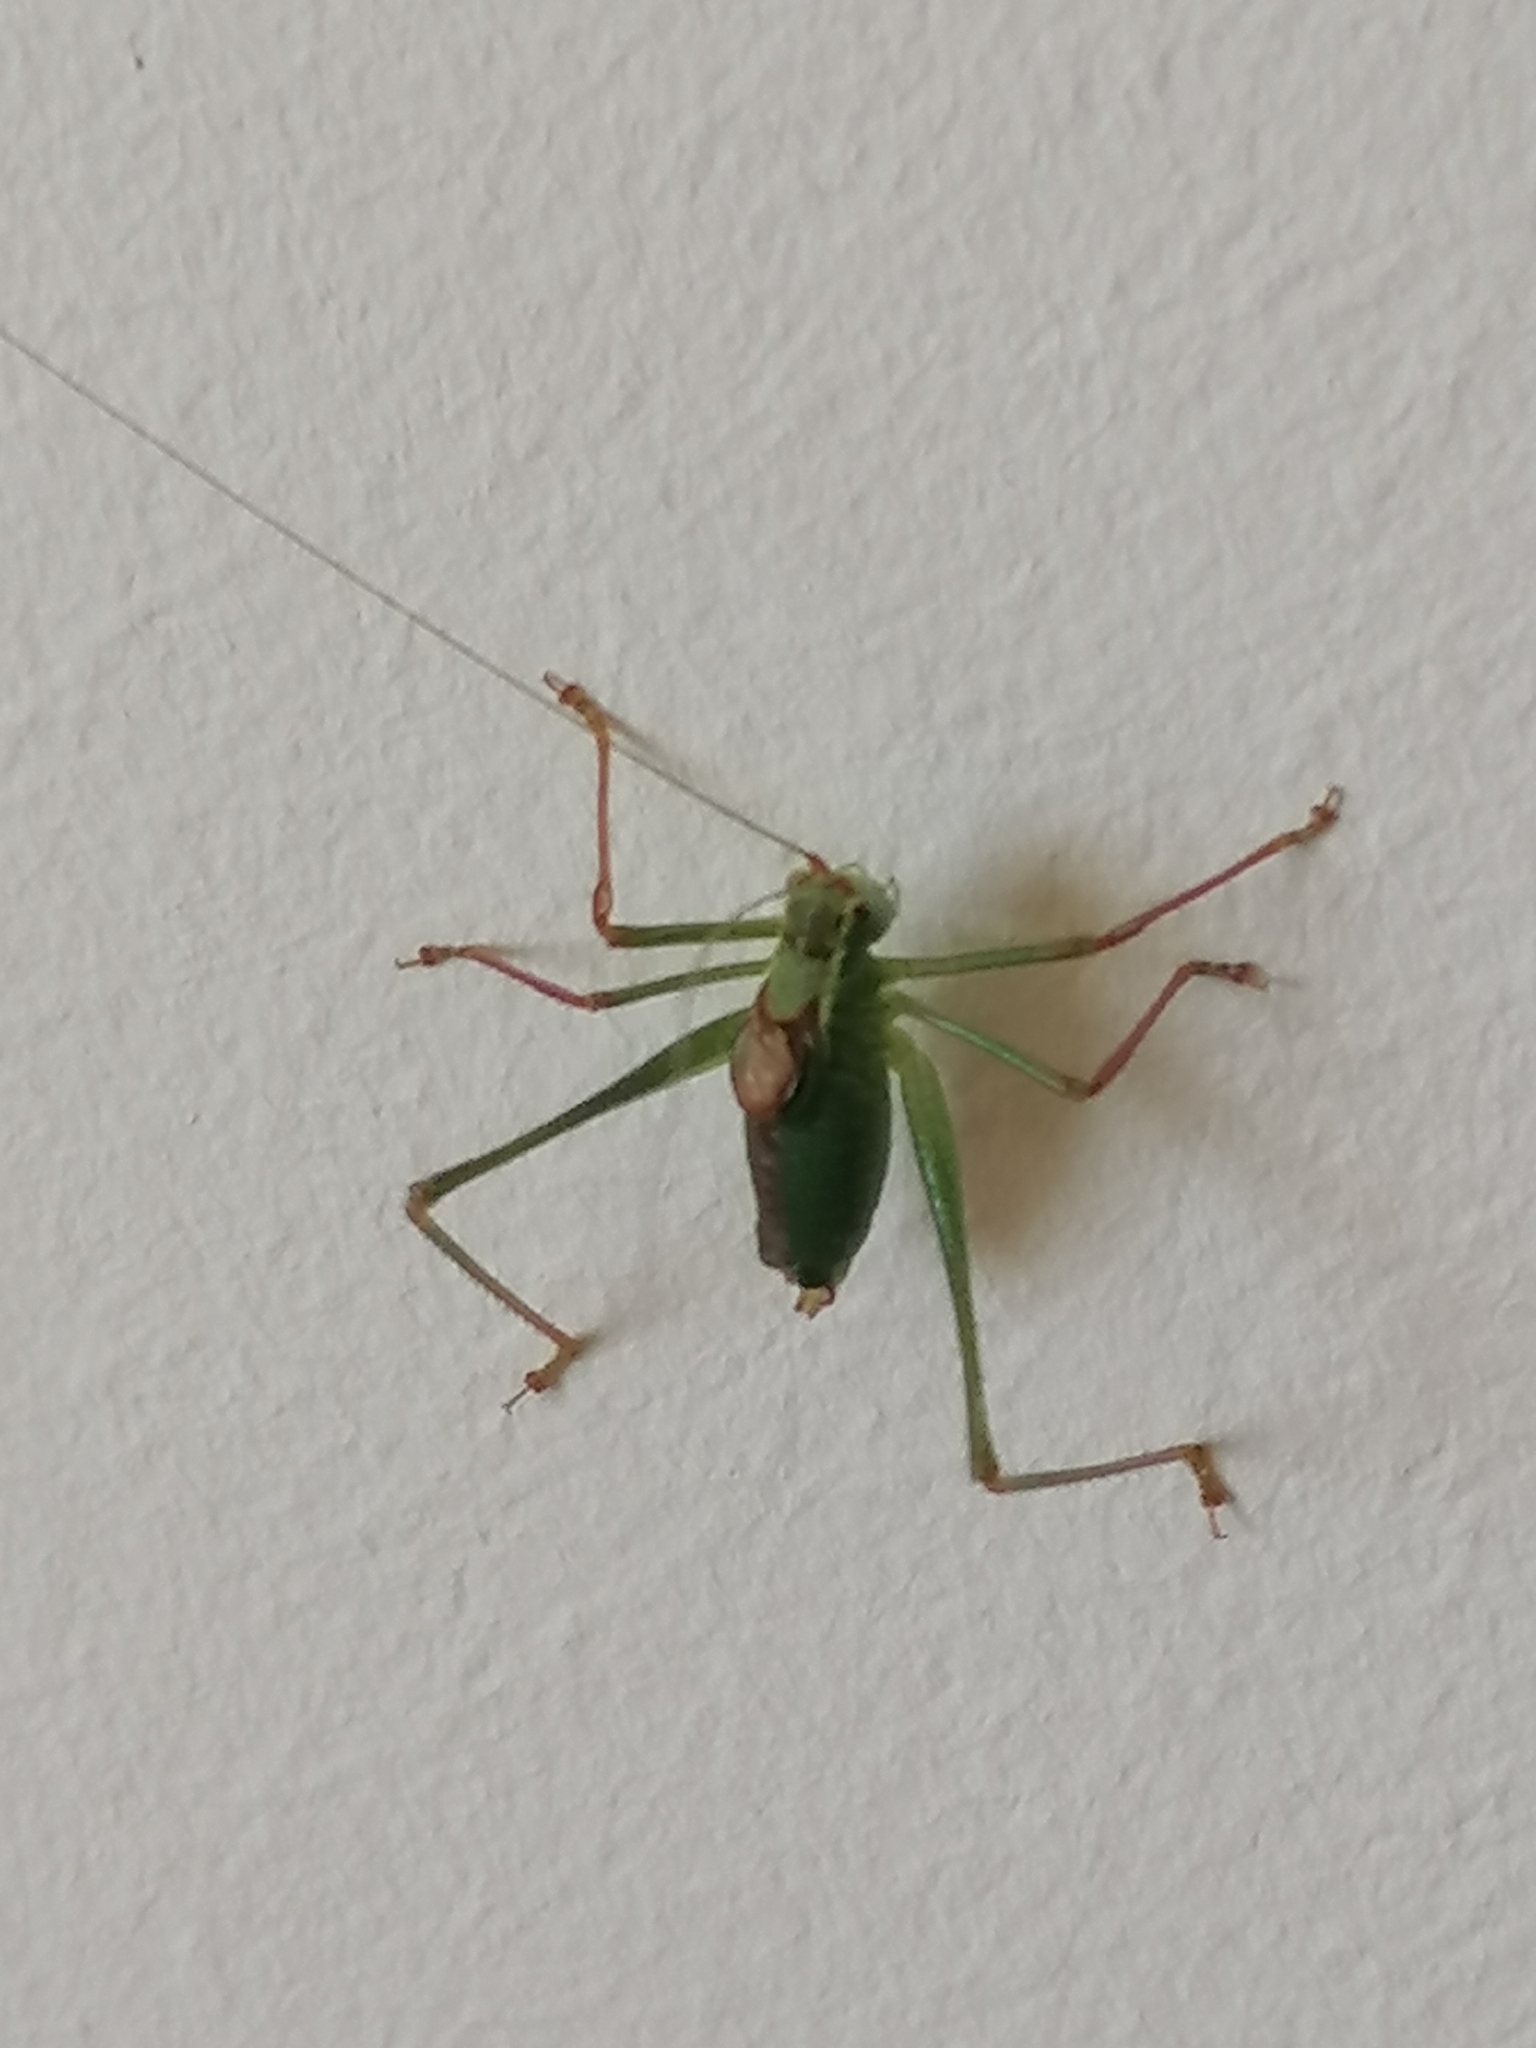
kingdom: Animalia
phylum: Arthropoda
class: Insecta
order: Orthoptera
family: Tettigoniidae
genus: Leptophyes
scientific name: Leptophyes punctatissima
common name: Speckled bush-cricket
